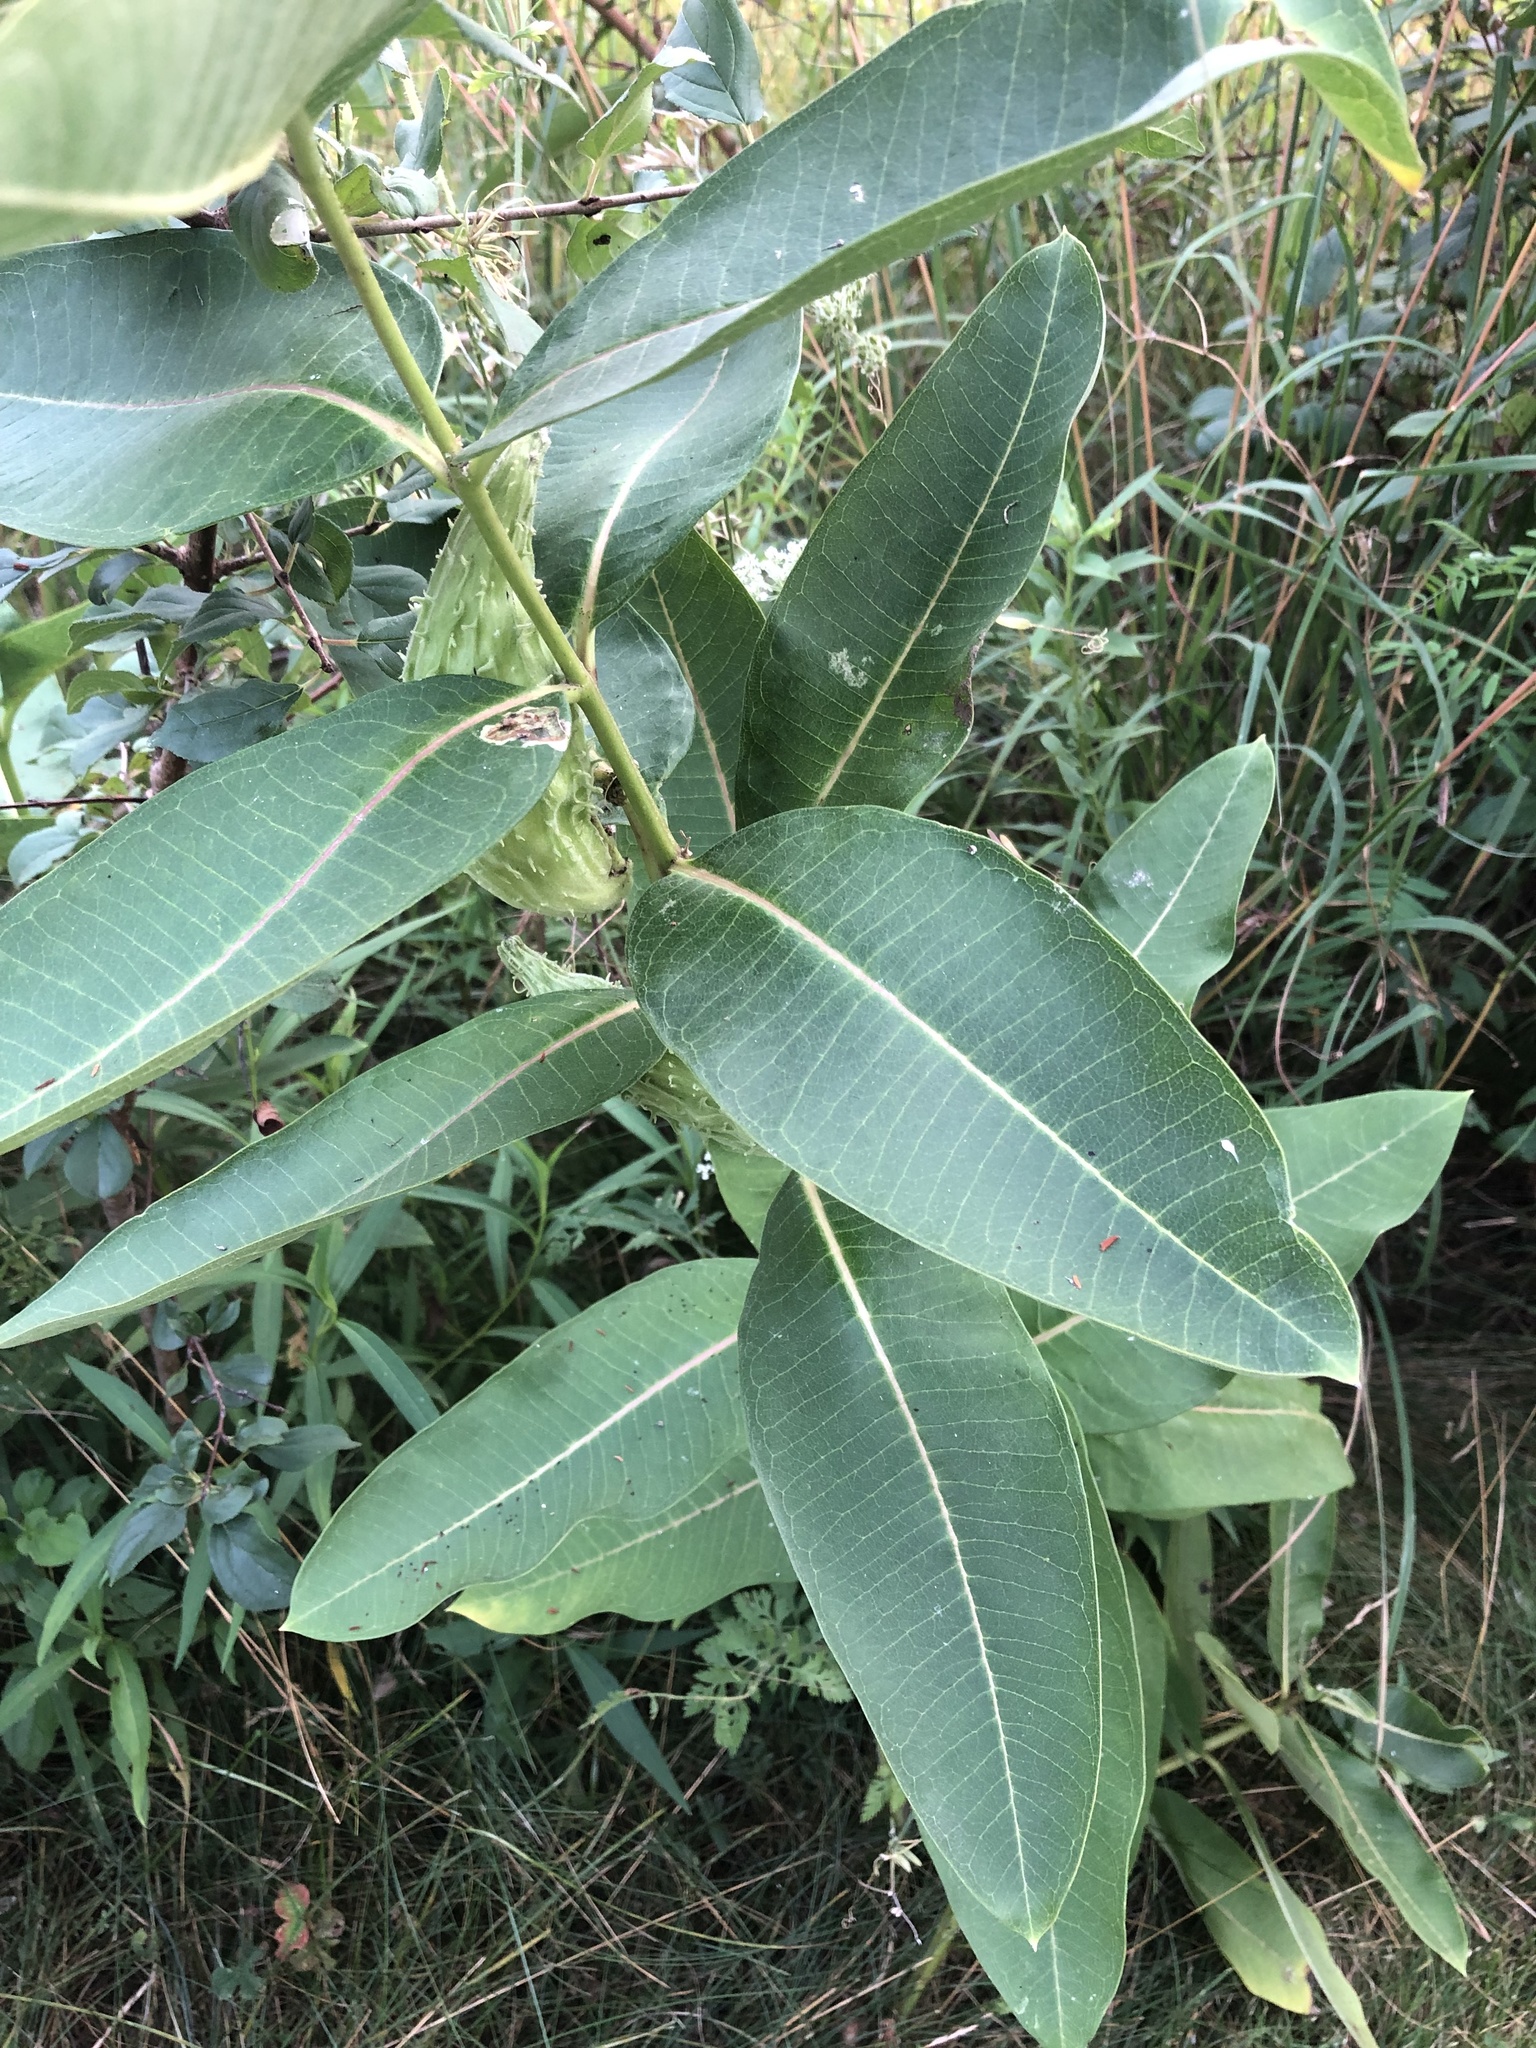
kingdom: Plantae
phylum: Tracheophyta
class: Magnoliopsida
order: Gentianales
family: Apocynaceae
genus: Asclepias
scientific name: Asclepias syriaca
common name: Common milkweed
